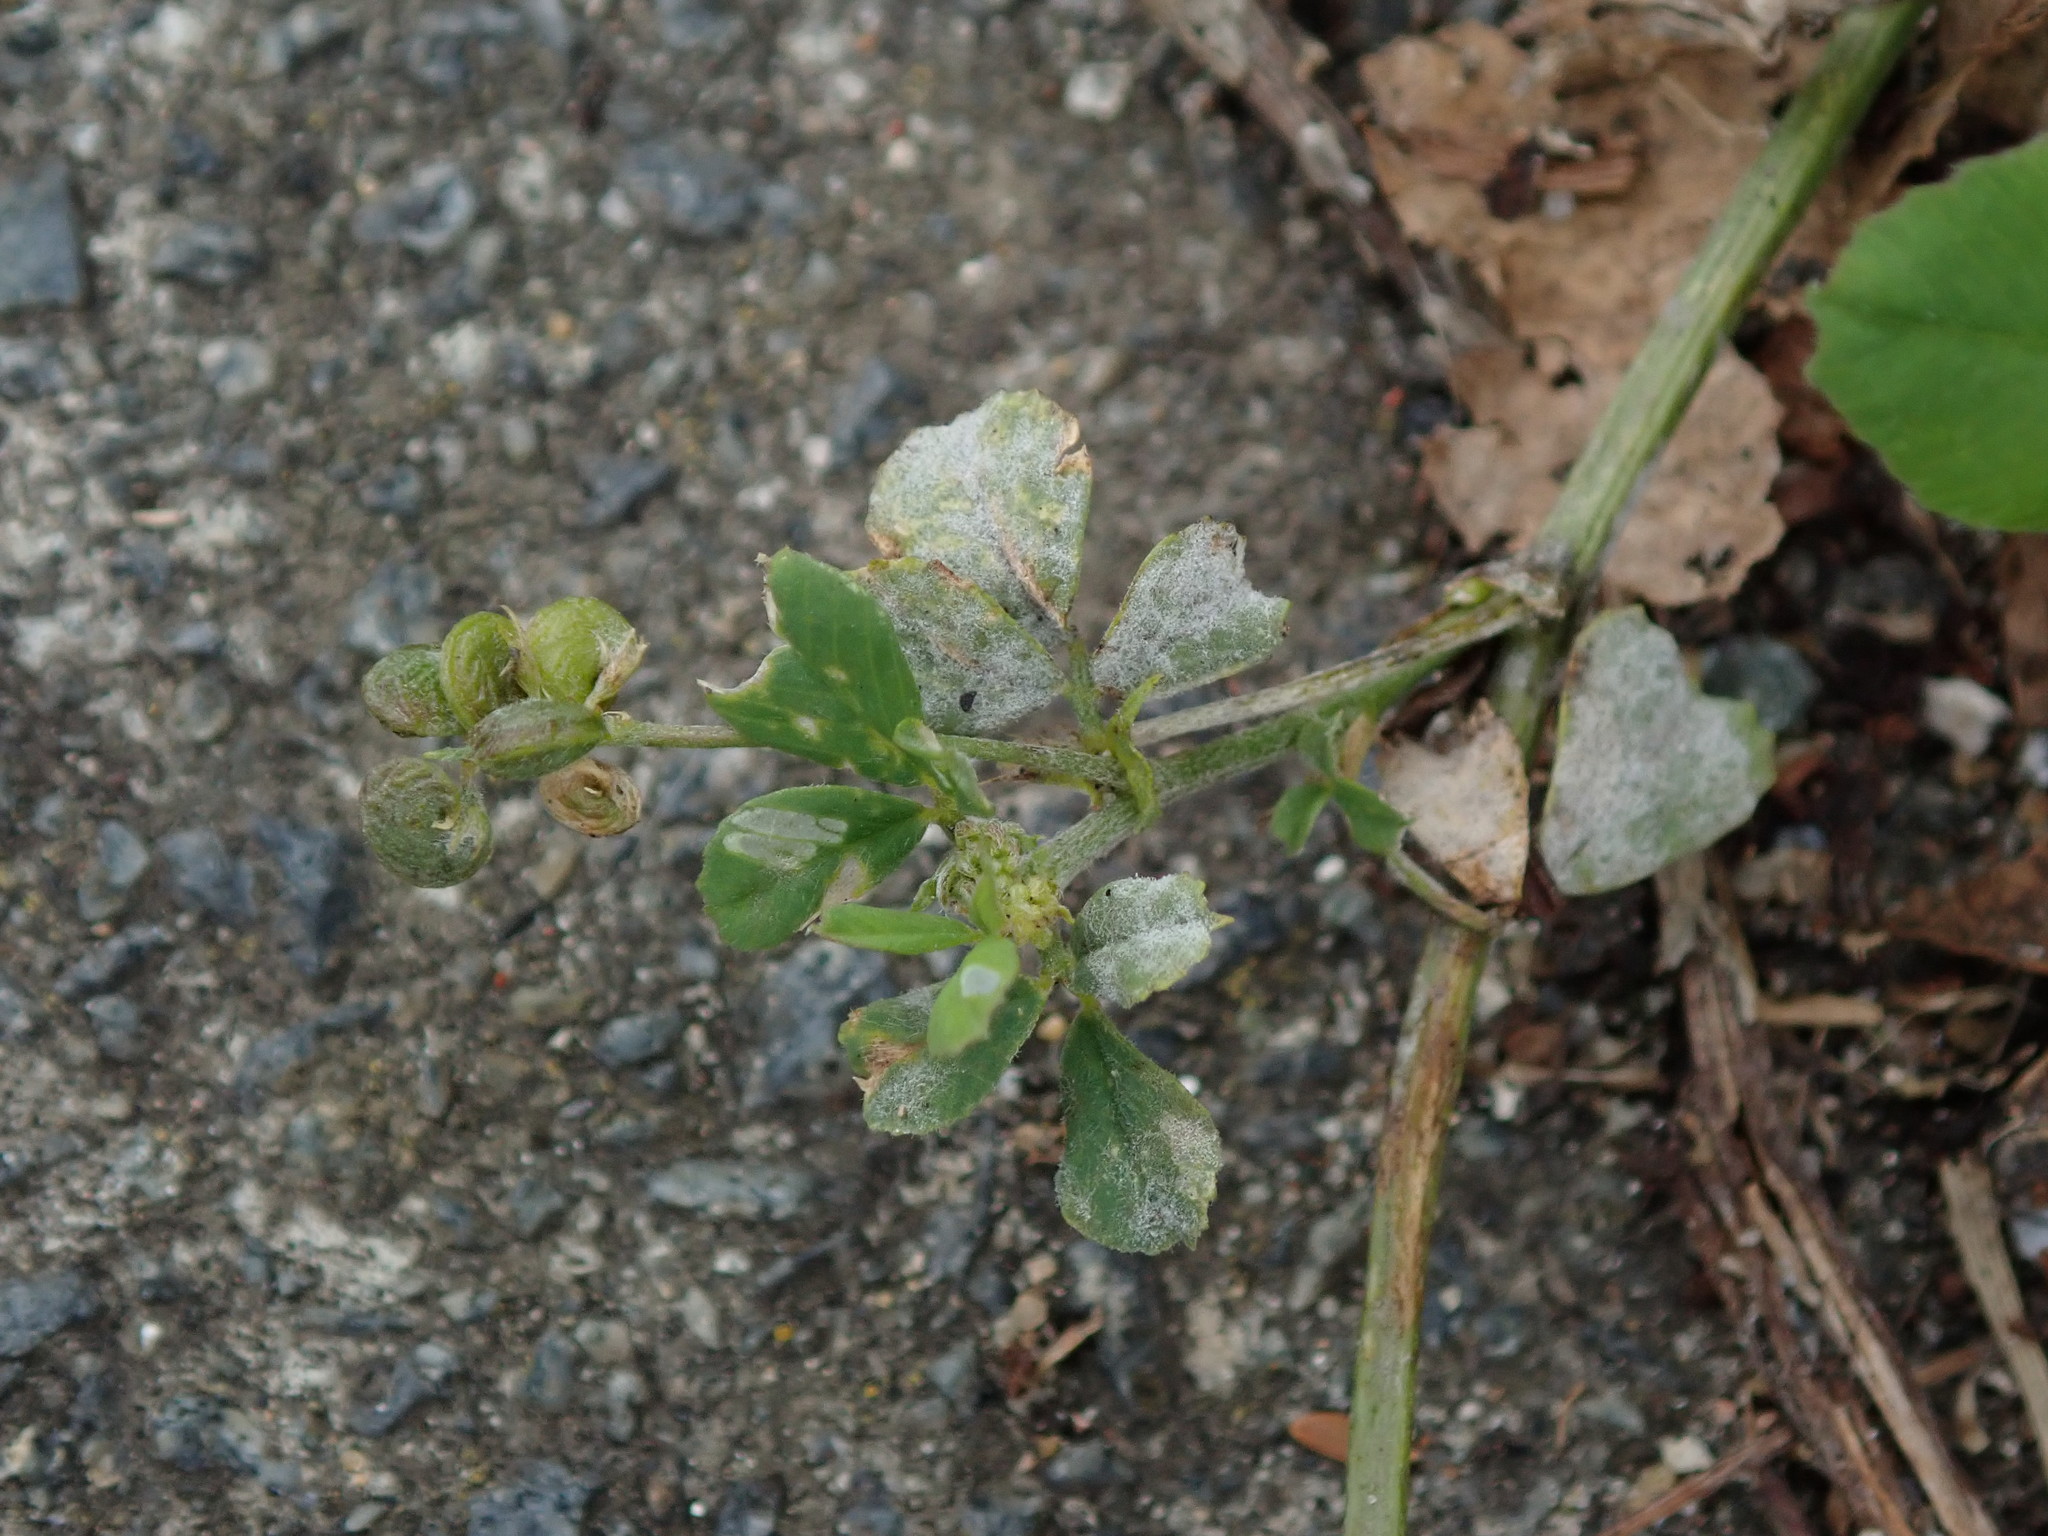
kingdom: Plantae
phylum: Tracheophyta
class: Magnoliopsida
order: Fabales
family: Fabaceae
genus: Medicago
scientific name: Medicago lupulina
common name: Black medick
